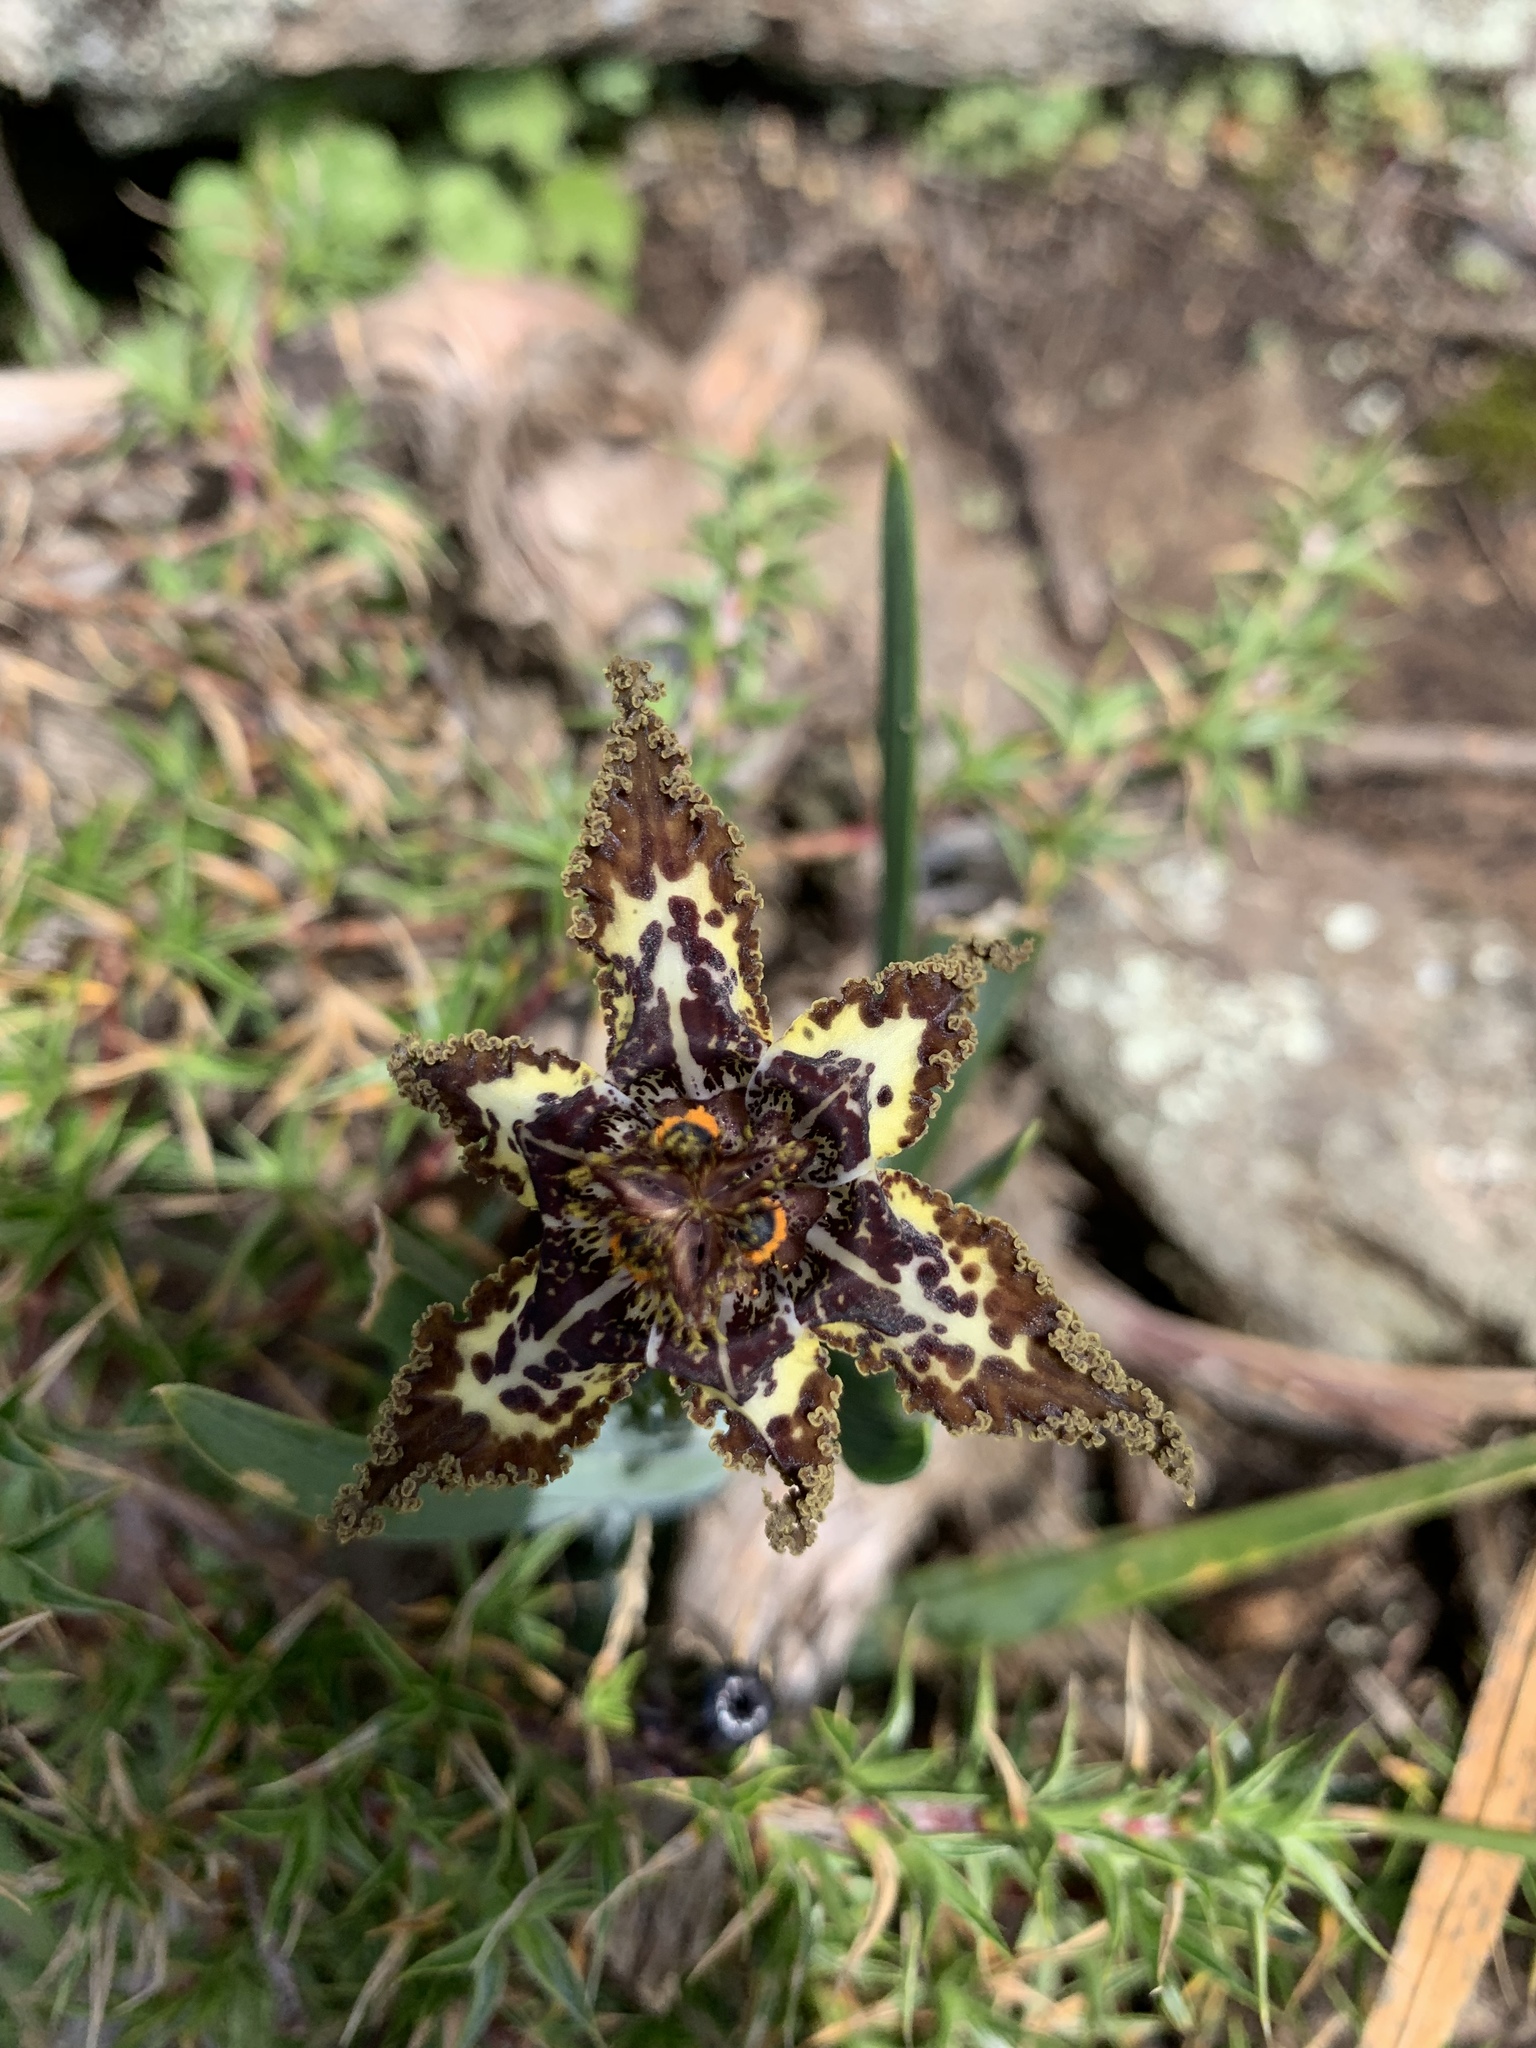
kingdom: Plantae
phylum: Tracheophyta
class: Liliopsida
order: Asparagales
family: Iridaceae
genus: Ferraria
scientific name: Ferraria crispa
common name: Black-flag
